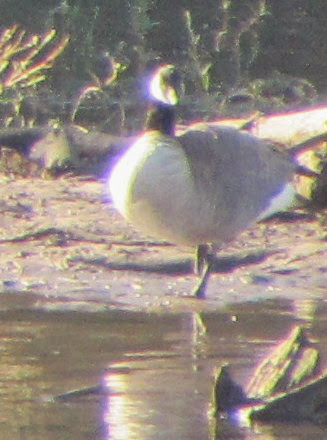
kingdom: Animalia
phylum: Chordata
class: Aves
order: Anseriformes
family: Anatidae
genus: Branta
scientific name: Branta canadensis
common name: Canada goose
